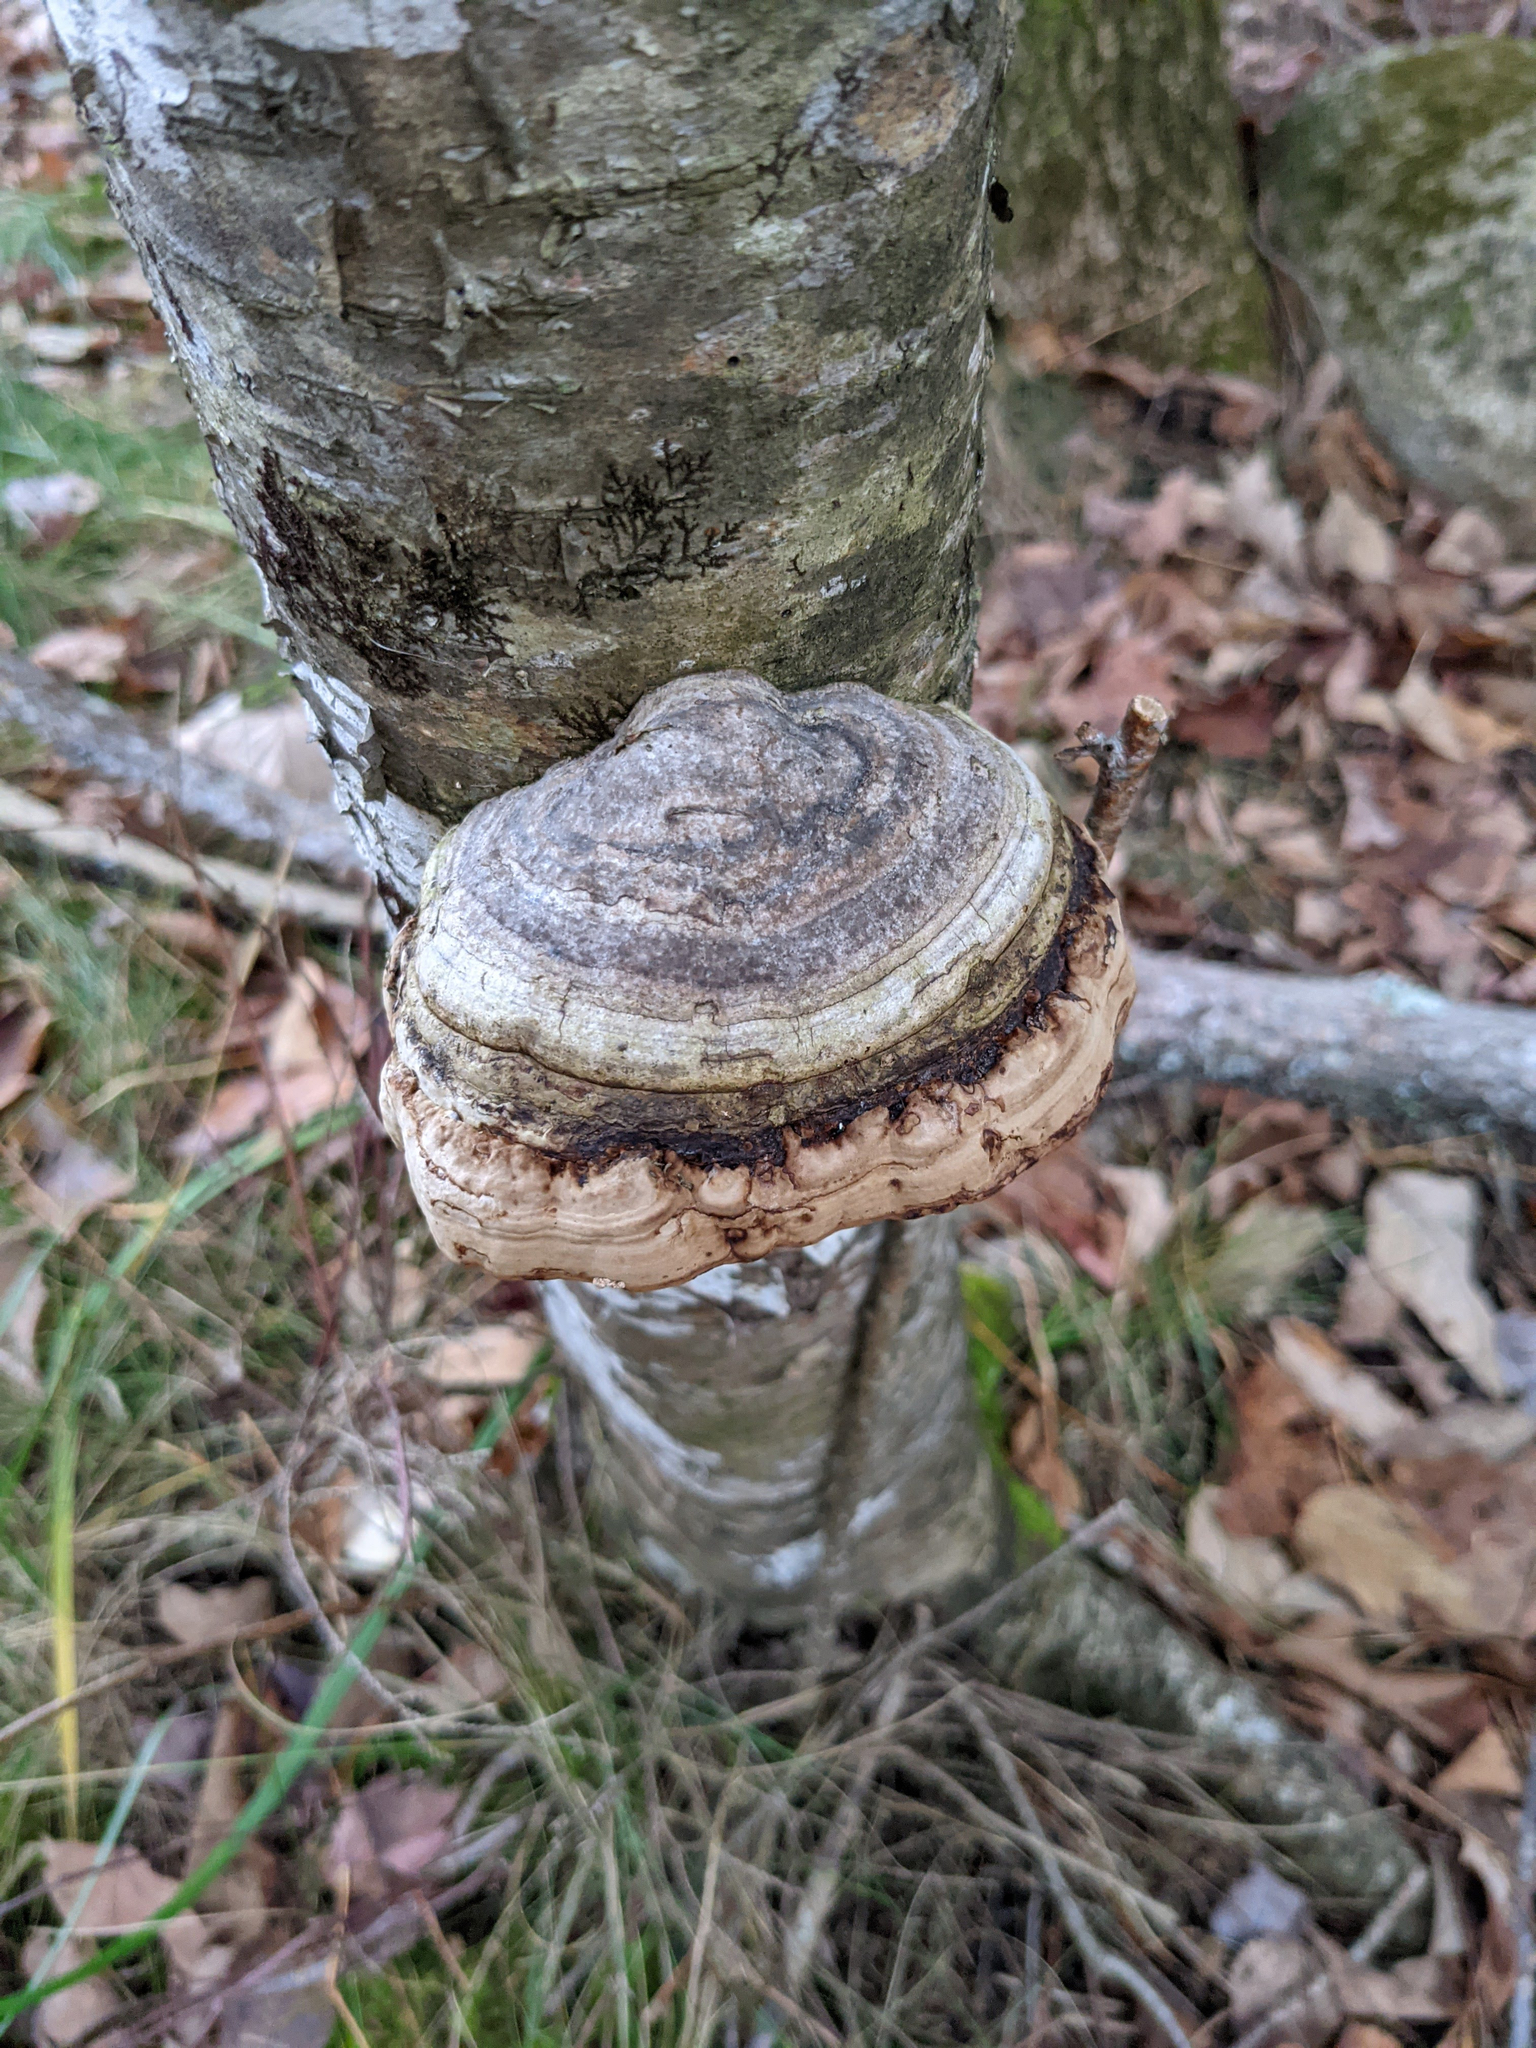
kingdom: Fungi
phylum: Basidiomycota
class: Agaricomycetes
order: Polyporales
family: Polyporaceae
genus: Fomes
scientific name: Fomes fomentarius
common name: Hoof fungus
